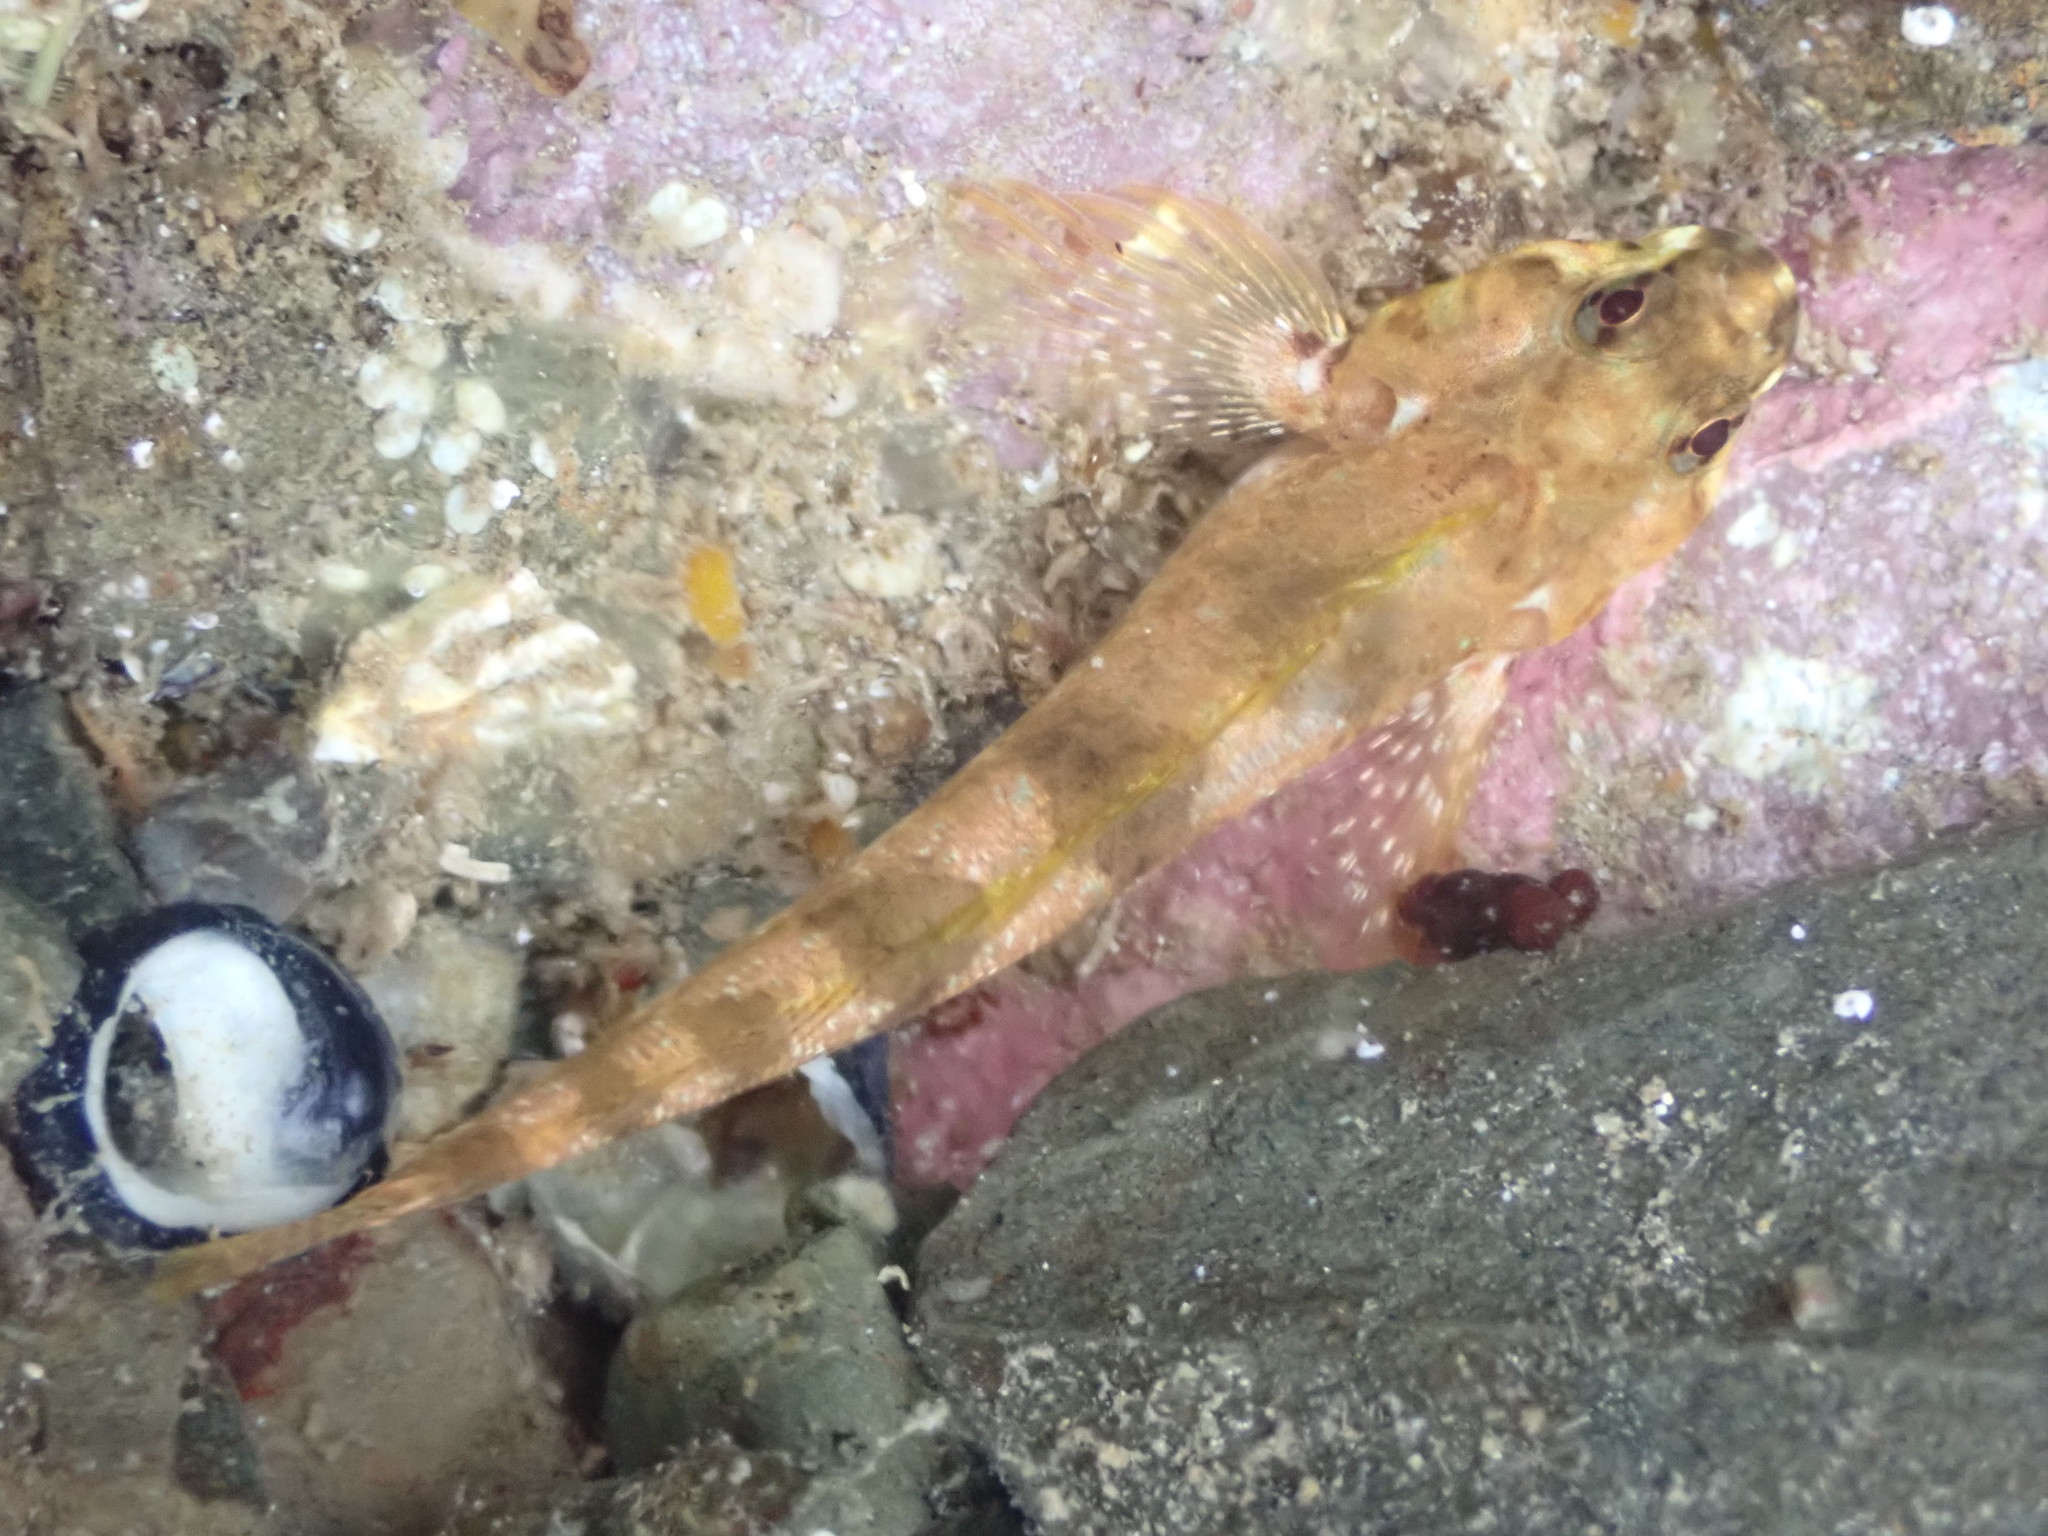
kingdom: Animalia
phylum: Chordata
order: Perciformes
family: Tripterygiidae
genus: Bellapiscis
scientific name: Bellapiscis medius
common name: Twister
